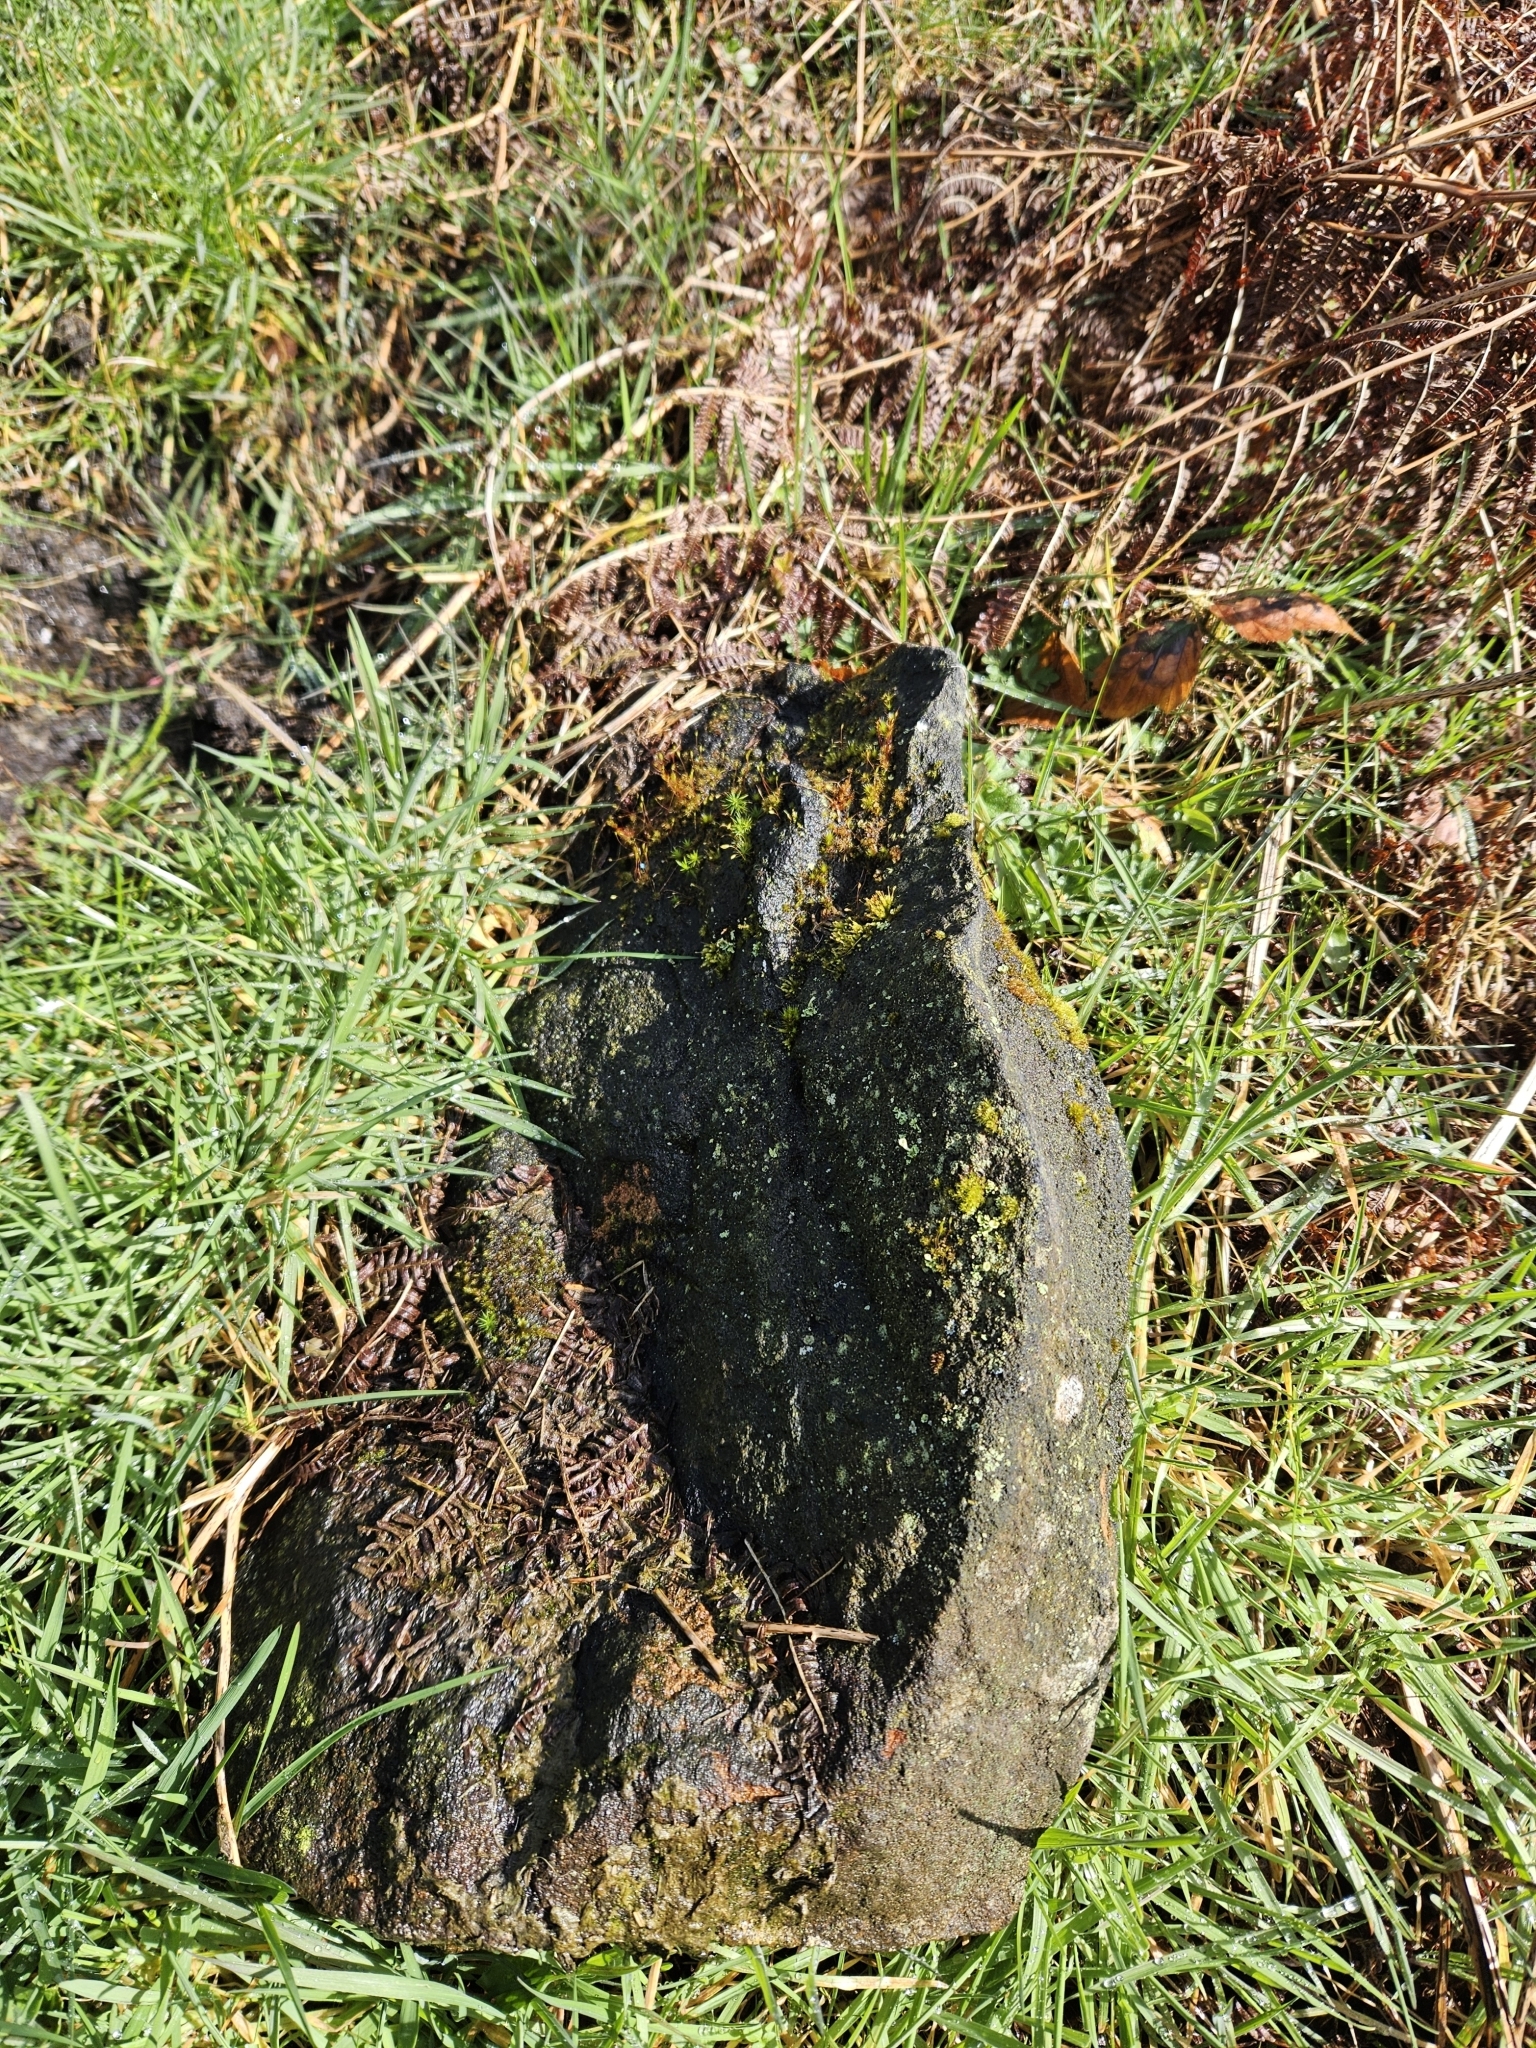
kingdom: Plantae
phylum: Bryophyta
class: Bryopsida
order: Aulacomniales
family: Aulacomniaceae
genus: Aulacomnium
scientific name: Aulacomnium androgynum
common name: Little groove moss
